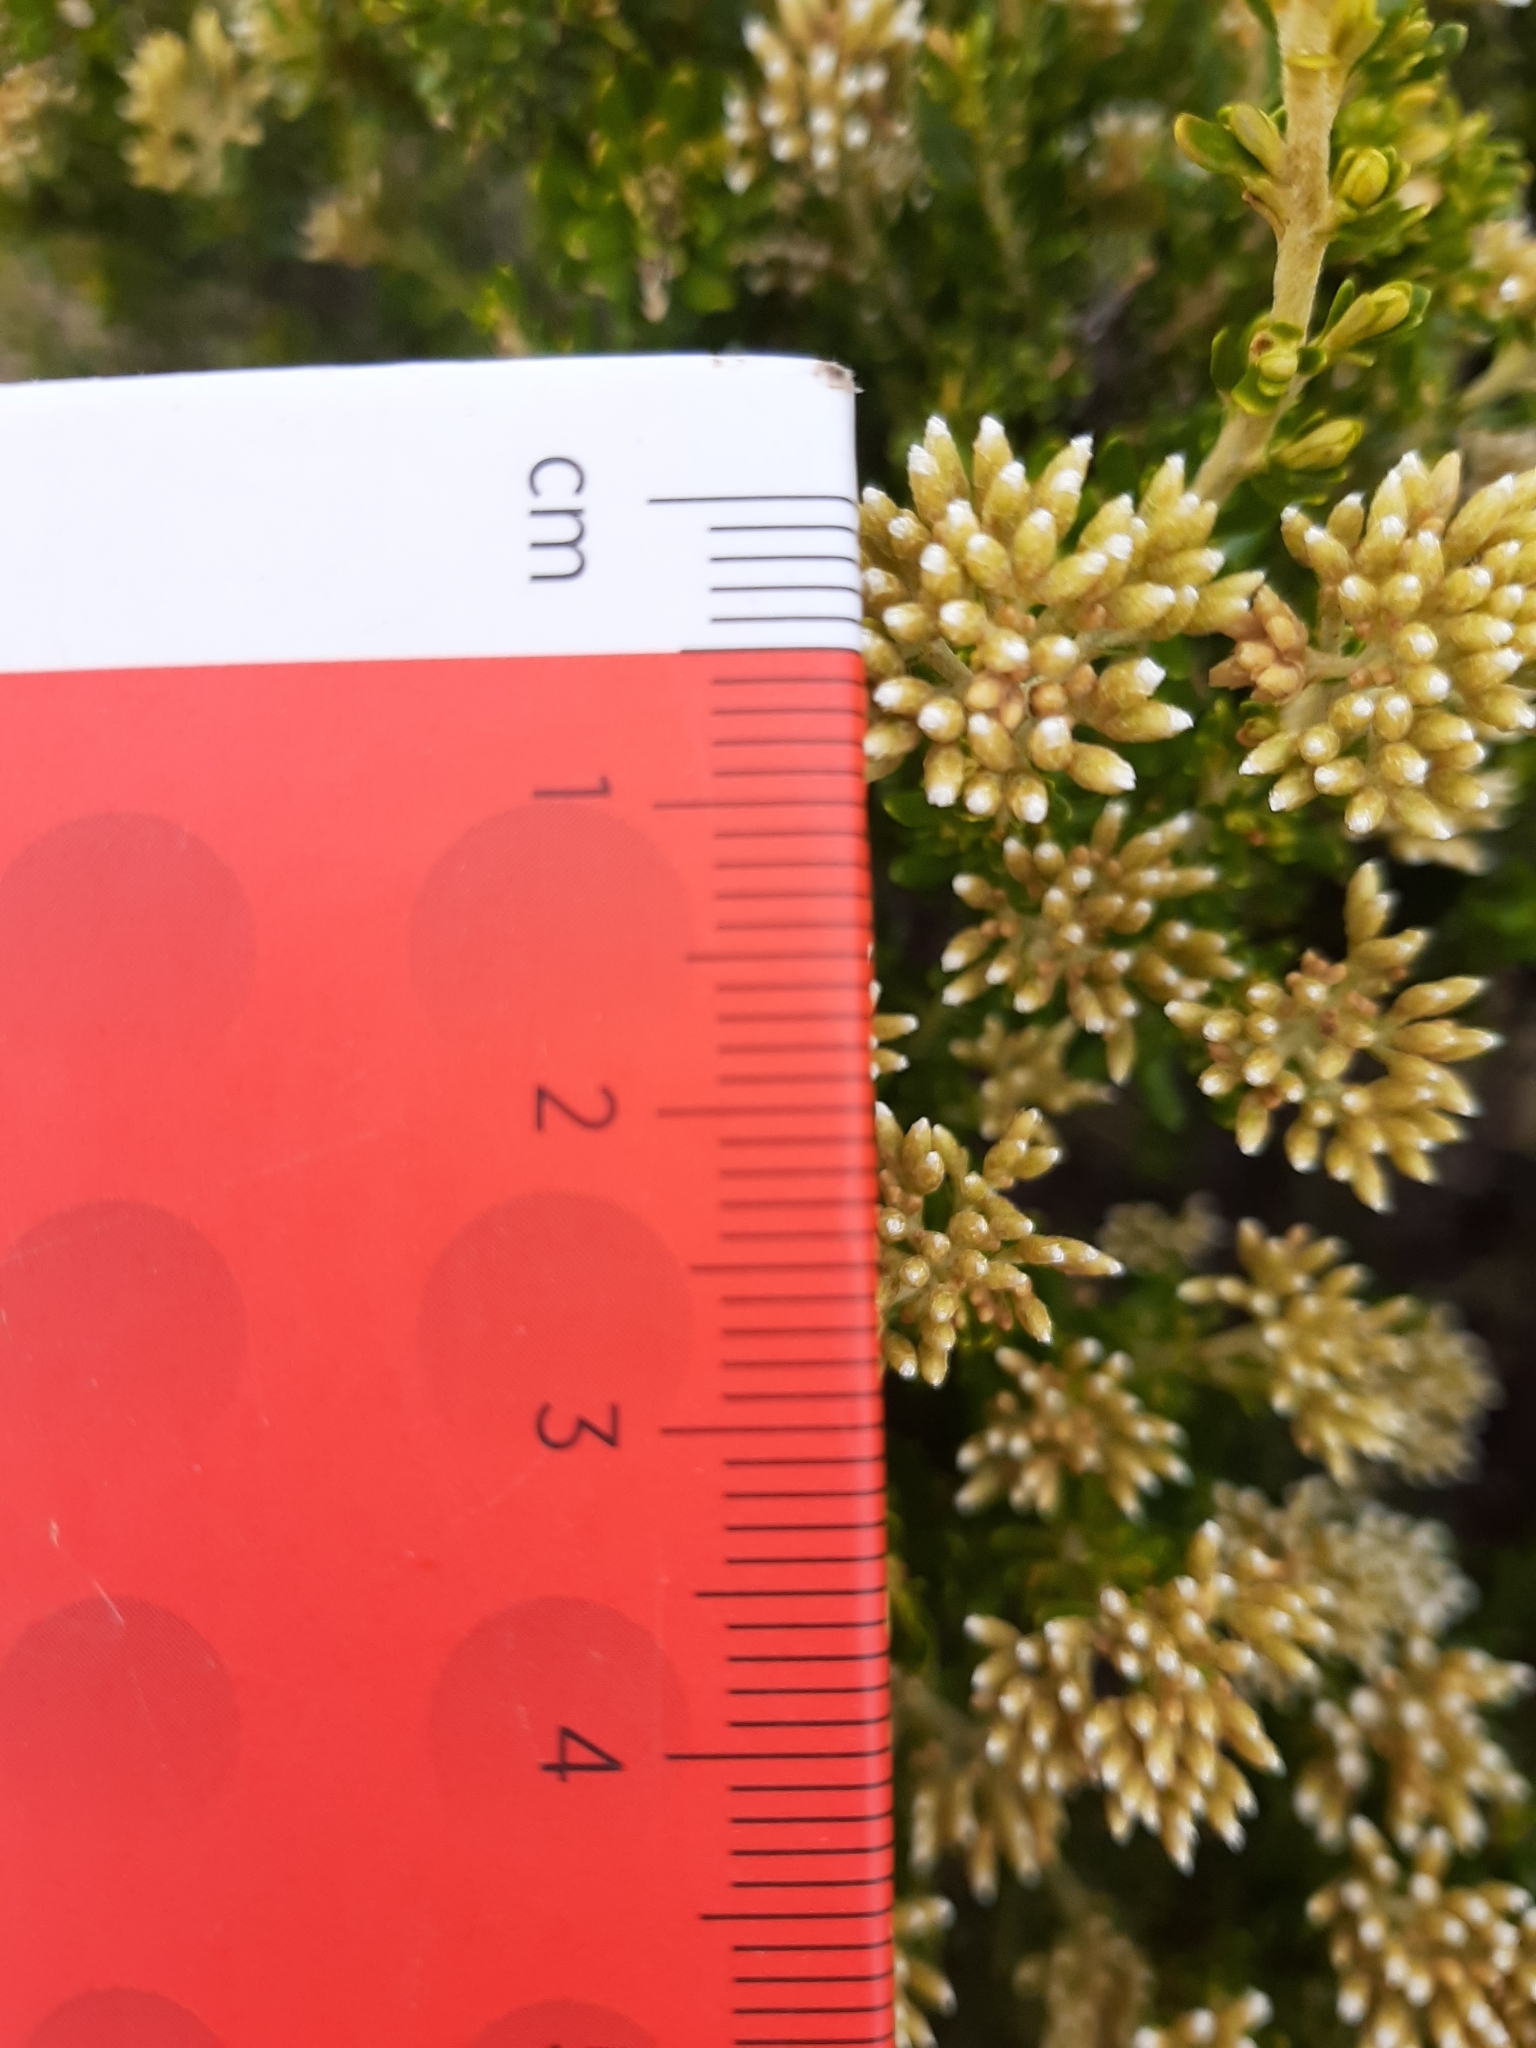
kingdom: Plantae
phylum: Tracheophyta
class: Magnoliopsida
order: Asterales
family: Asteraceae
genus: Ozothamnus
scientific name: Ozothamnus leptophyllus
